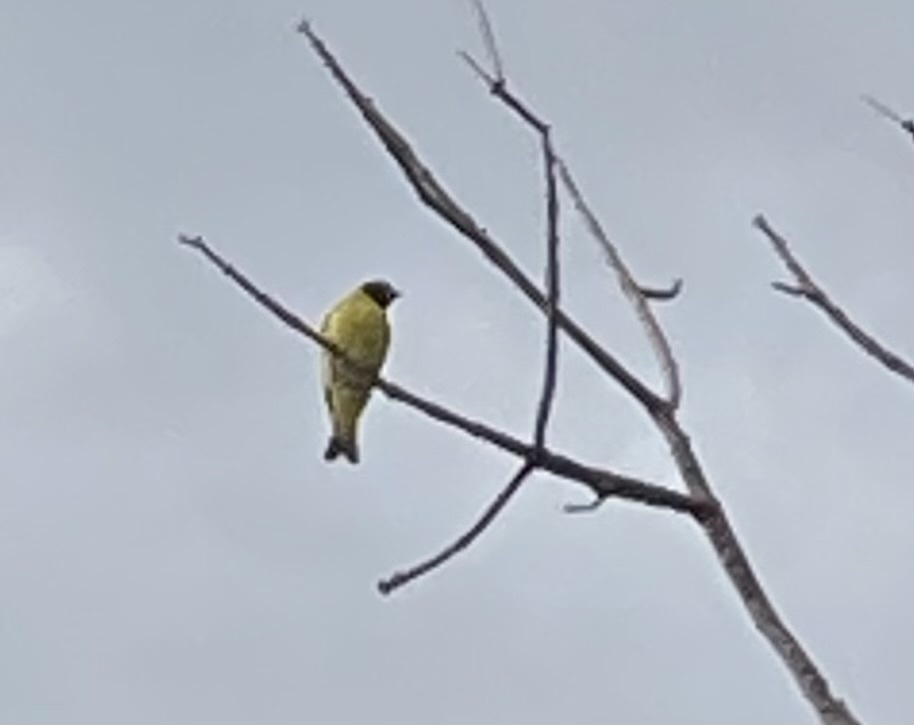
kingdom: Animalia
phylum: Chordata
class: Aves
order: Passeriformes
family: Fringillidae
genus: Spinus
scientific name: Spinus magellanicus
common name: Hooded siskin
